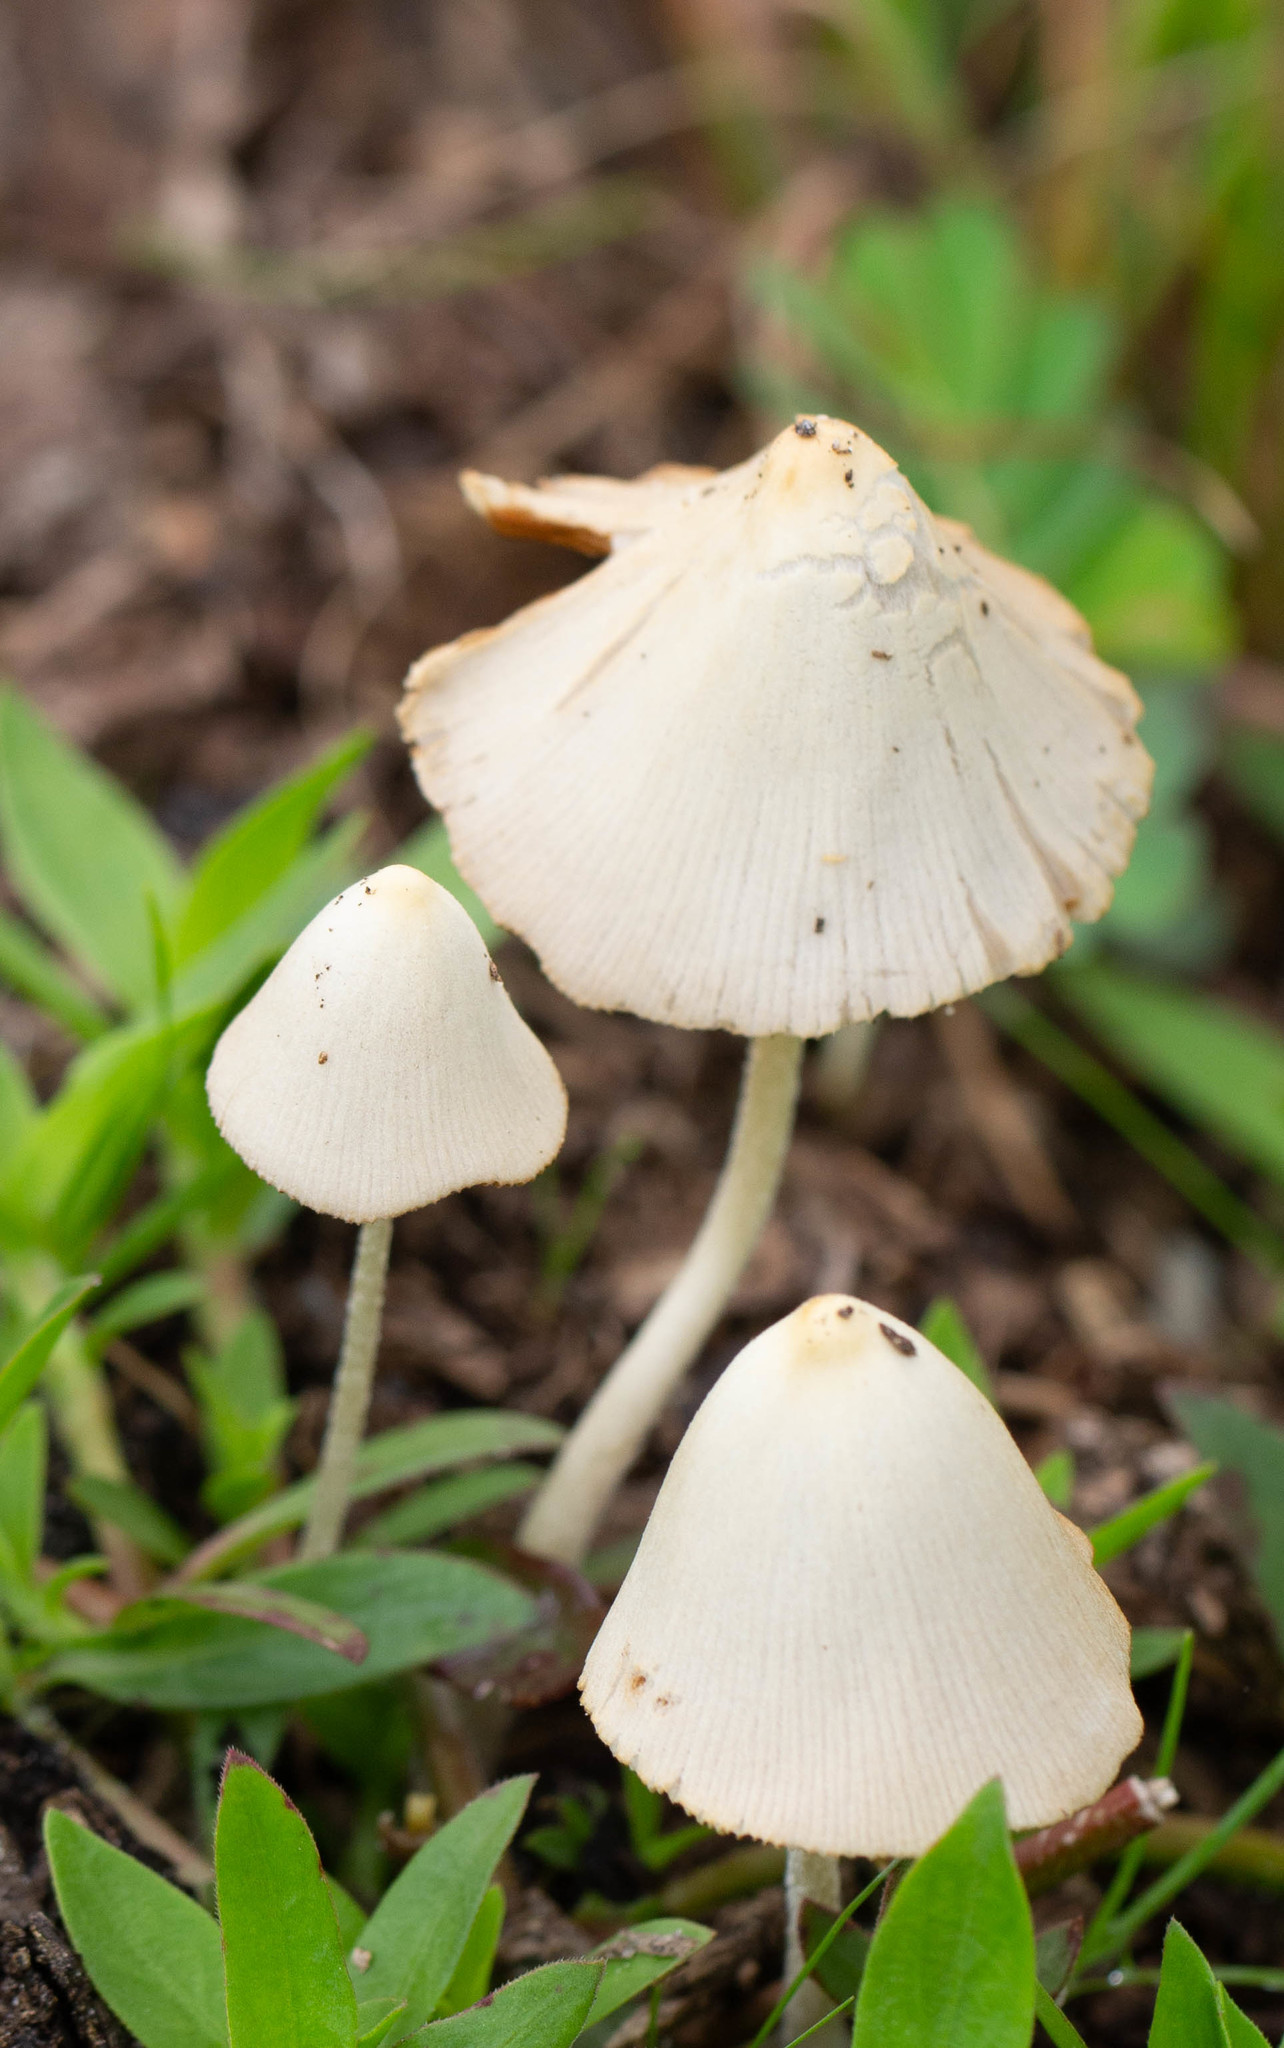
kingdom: Fungi
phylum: Basidiomycota
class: Agaricomycetes
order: Agaricales
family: Bolbitiaceae
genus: Conocybe
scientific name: Conocybe apala
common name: Milky conecap
